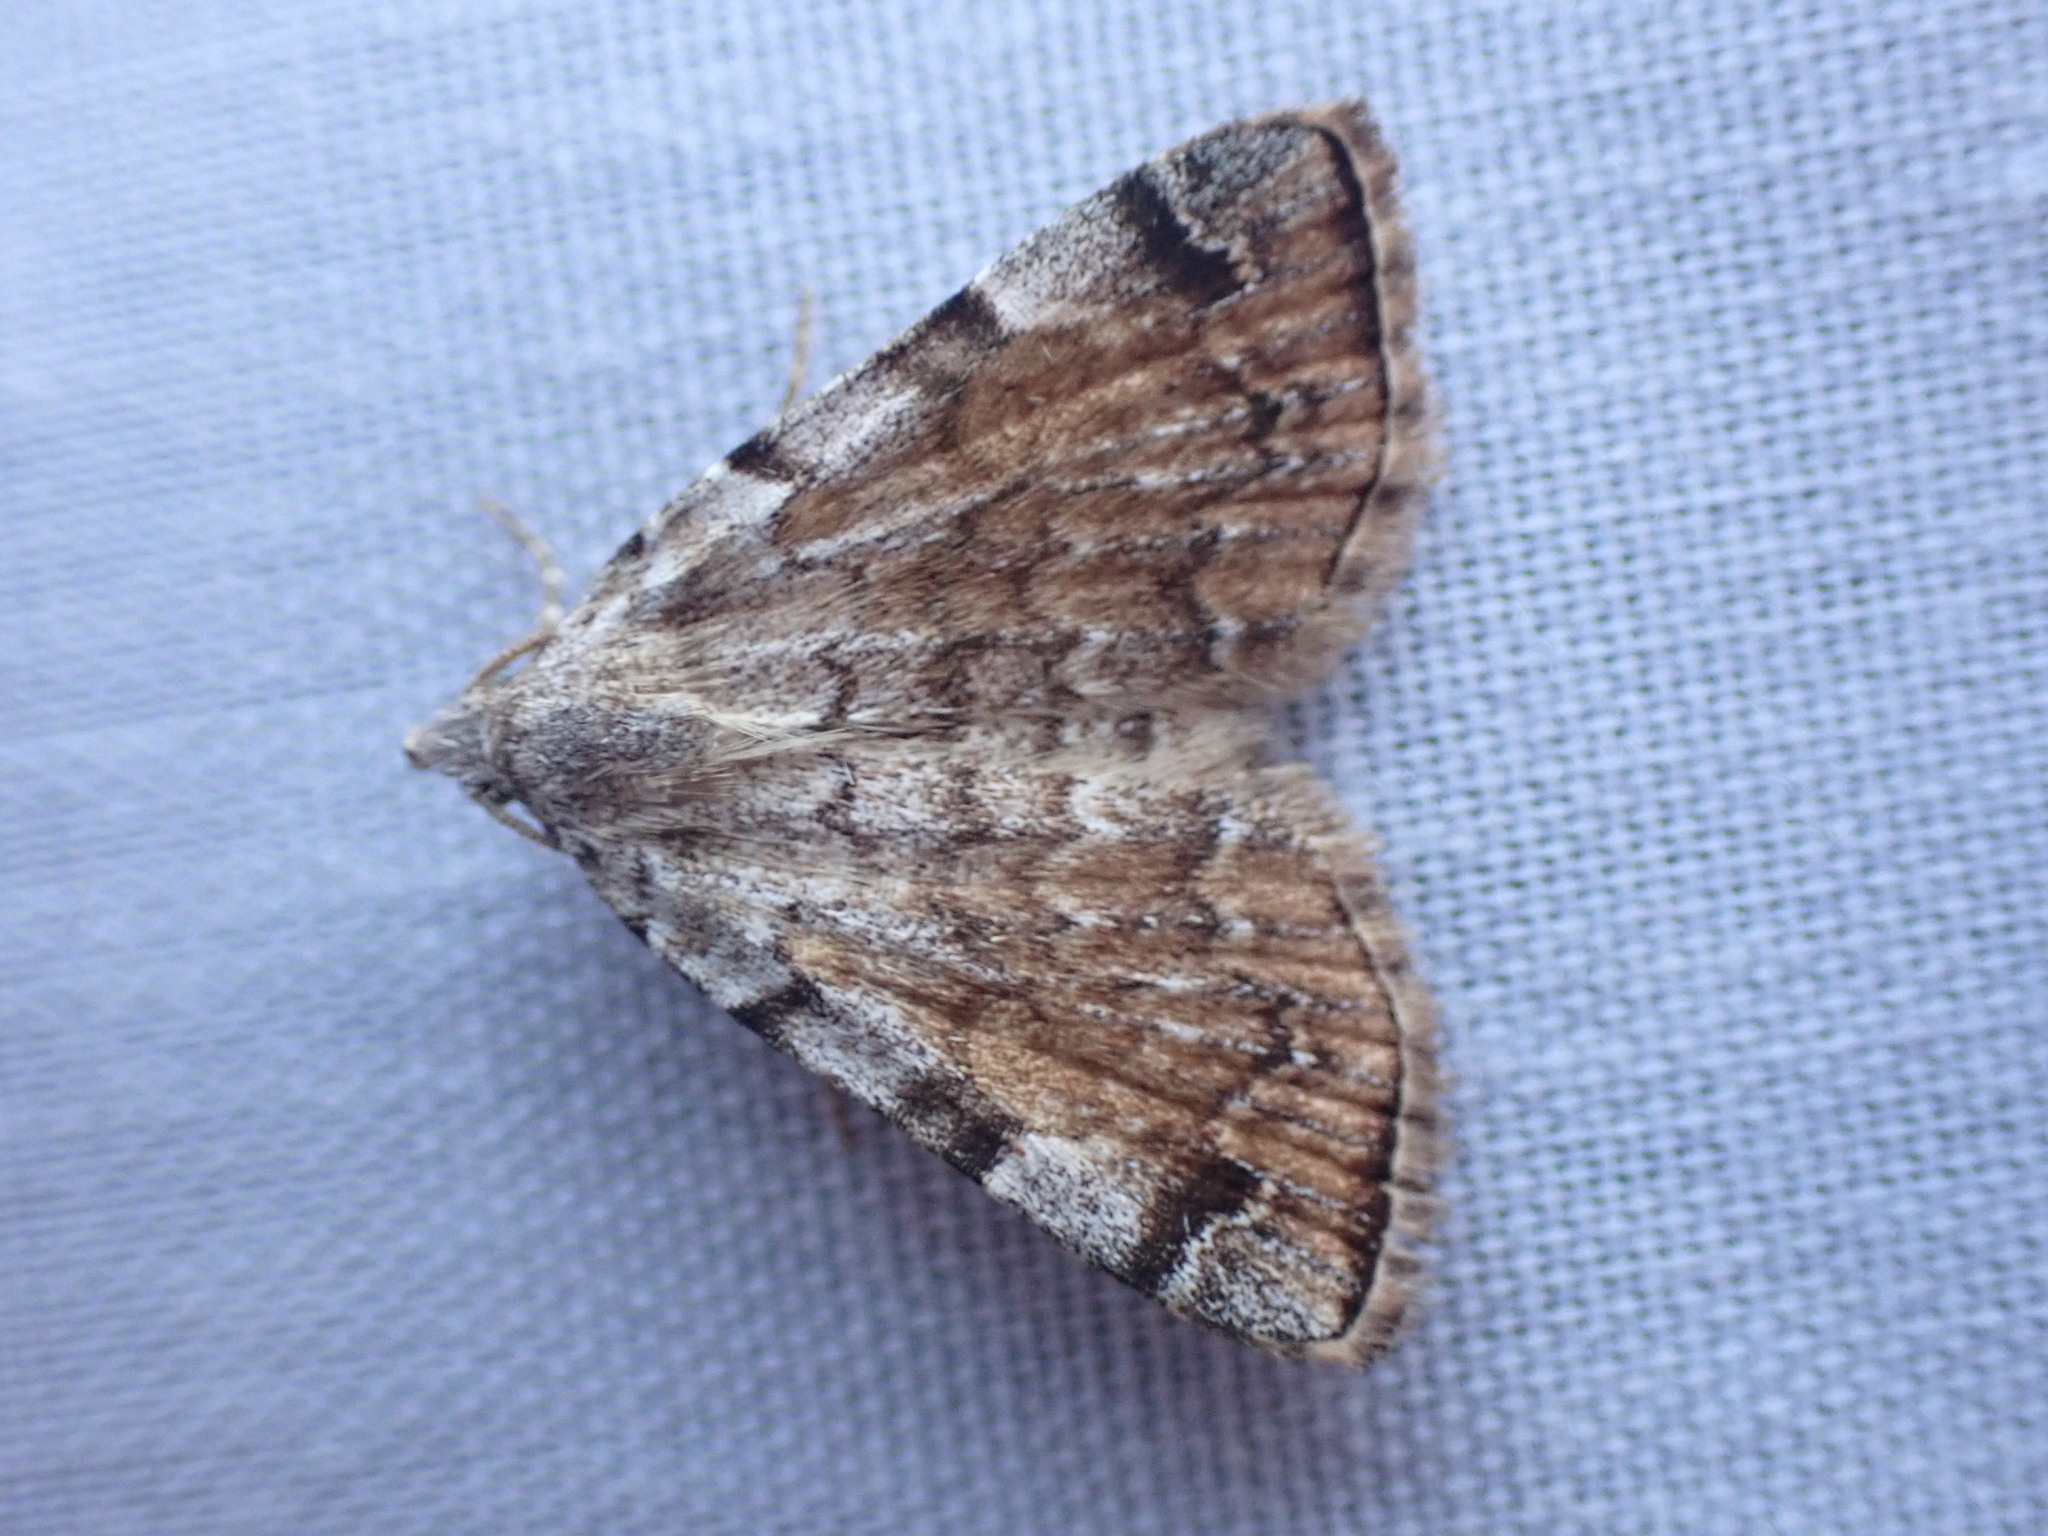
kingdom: Animalia
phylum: Arthropoda
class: Insecta
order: Lepidoptera
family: Erebidae
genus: Idia
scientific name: Idia americalis
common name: American idia moth
